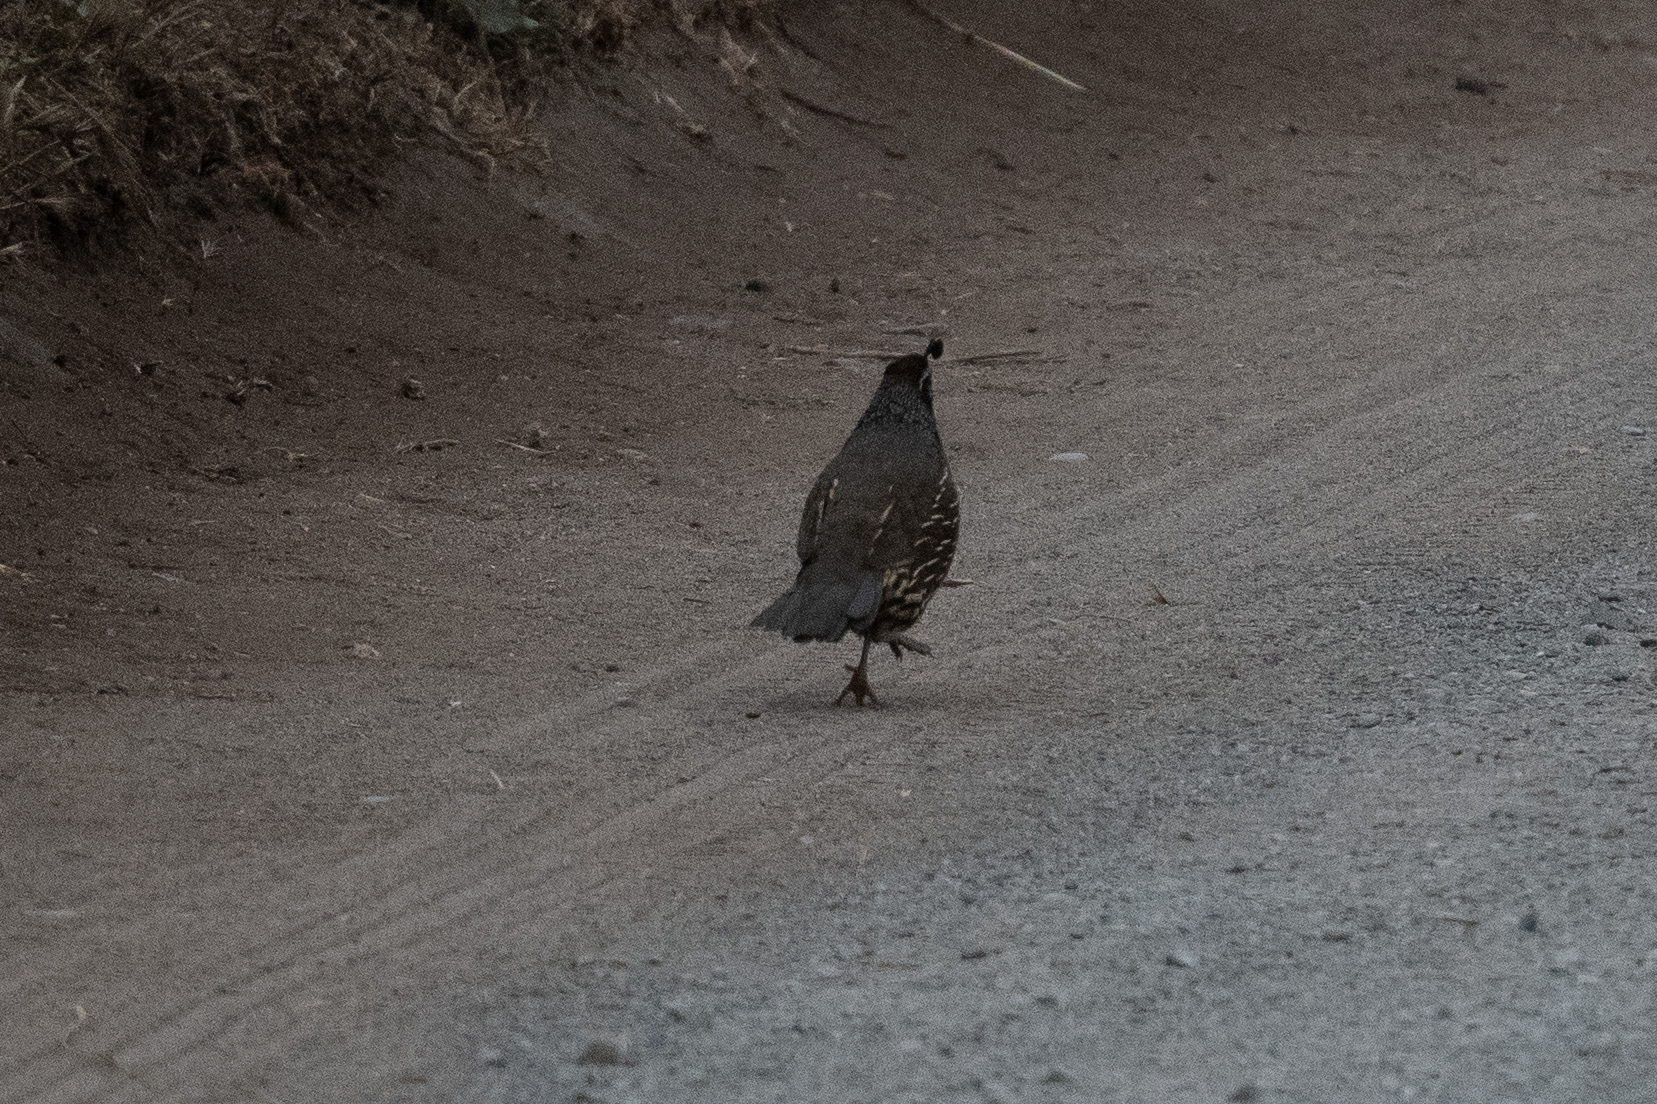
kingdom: Animalia
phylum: Chordata
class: Aves
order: Galliformes
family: Odontophoridae
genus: Callipepla
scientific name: Callipepla californica
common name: California quail
